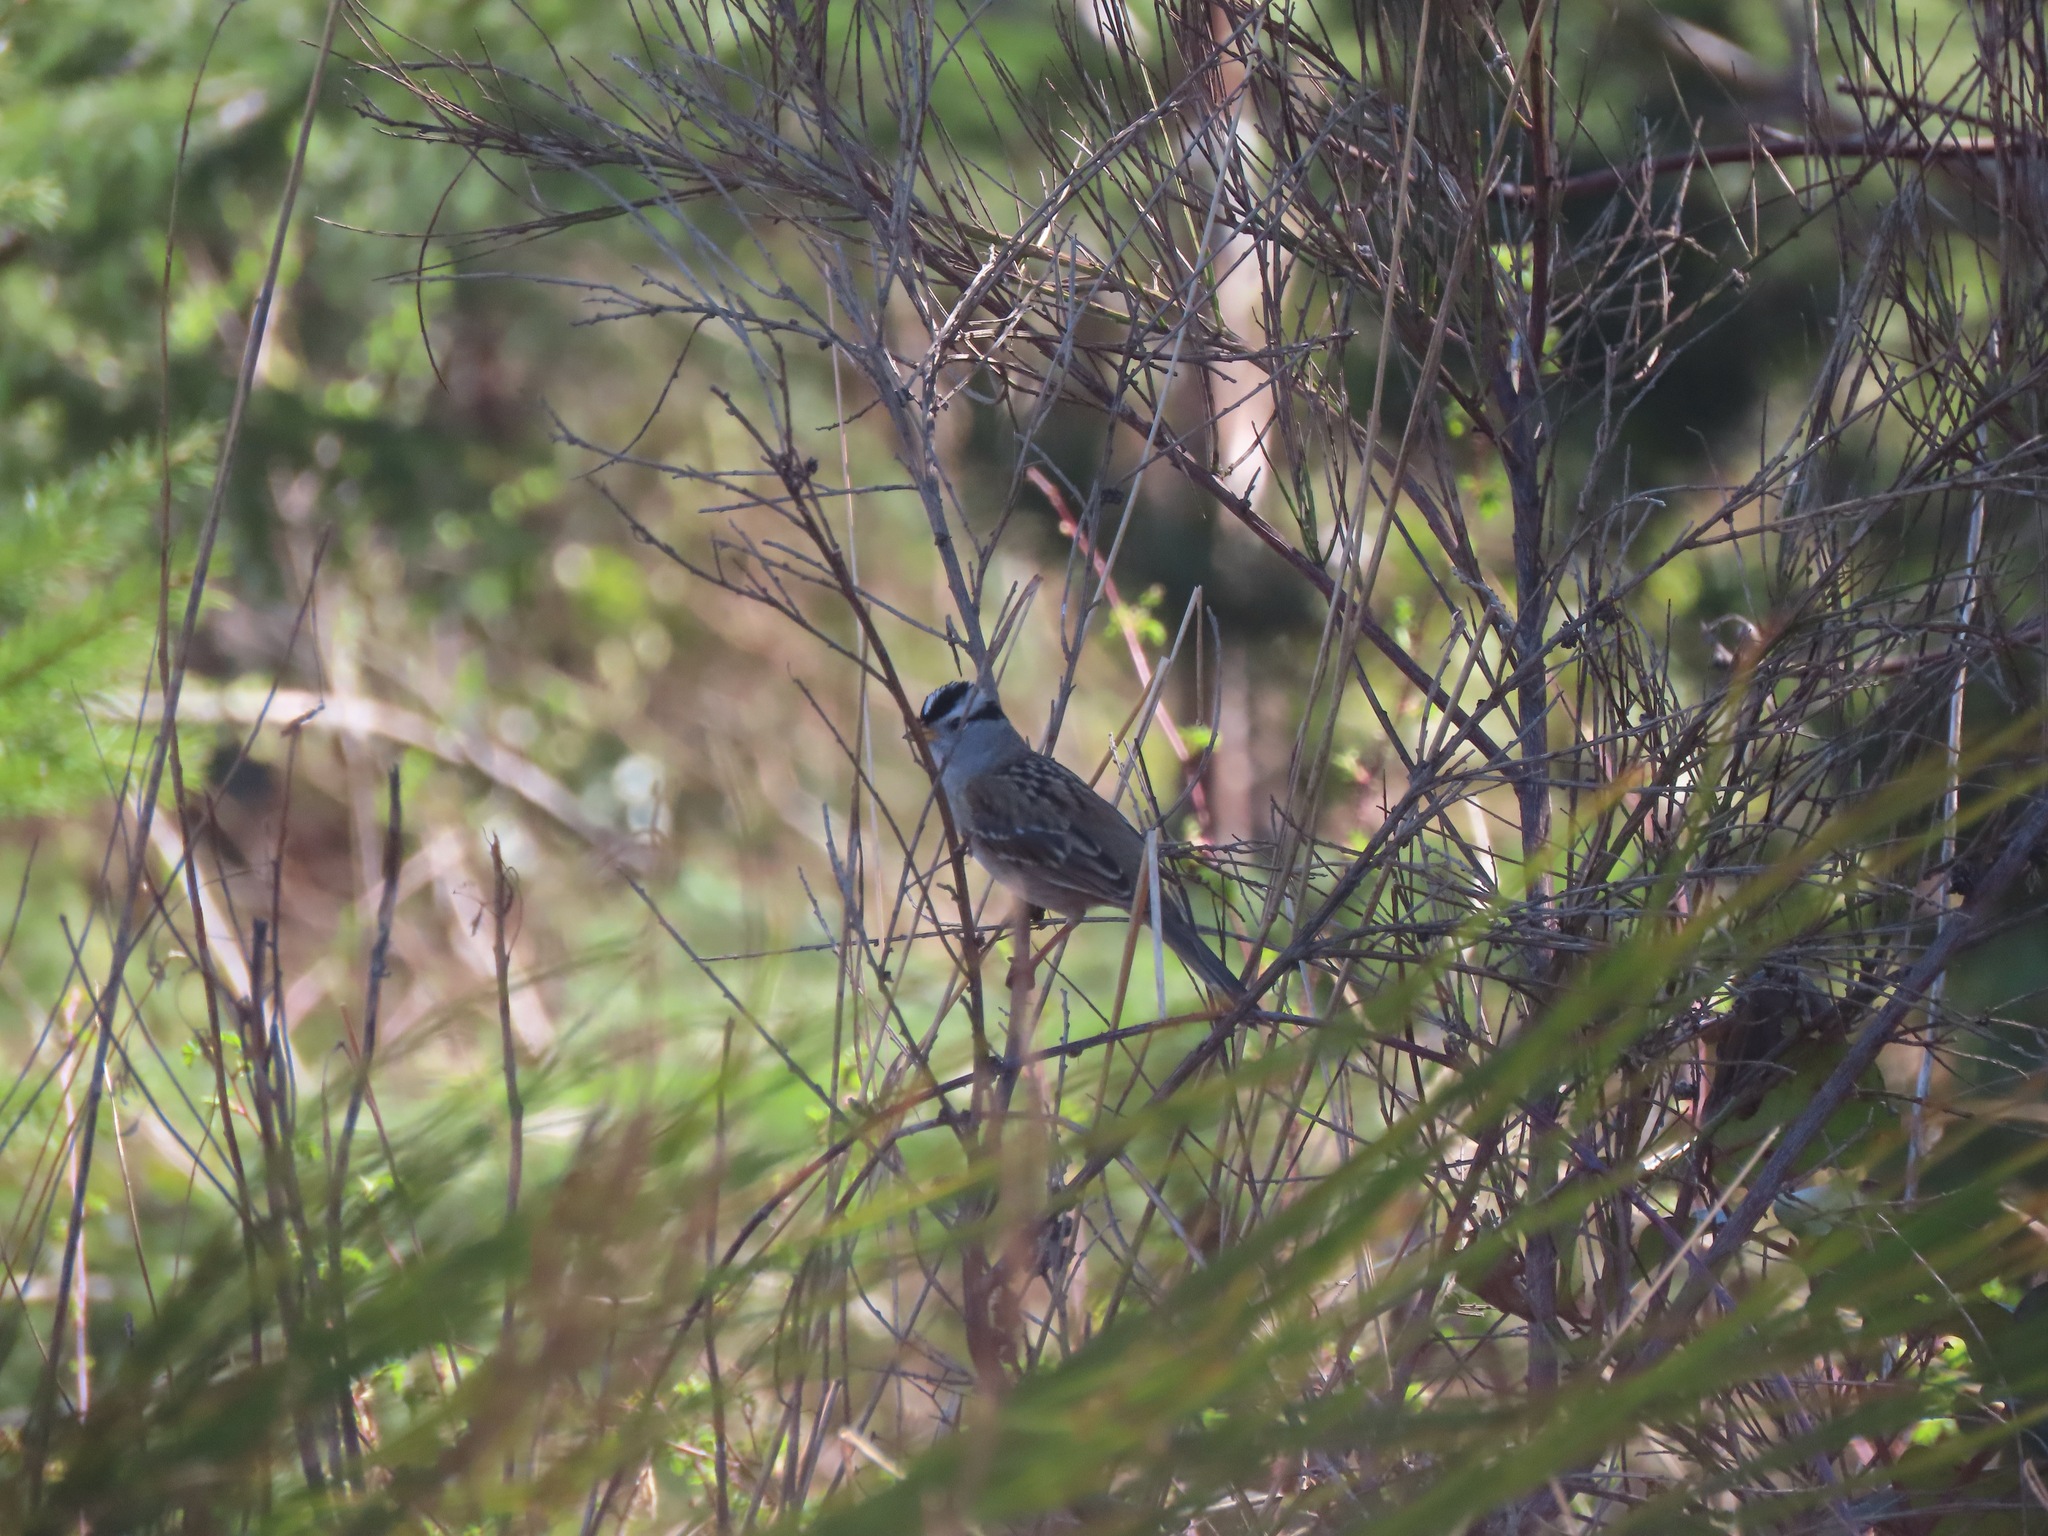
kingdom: Animalia
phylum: Chordata
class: Aves
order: Passeriformes
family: Passerellidae
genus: Zonotrichia
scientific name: Zonotrichia leucophrys
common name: White-crowned sparrow
